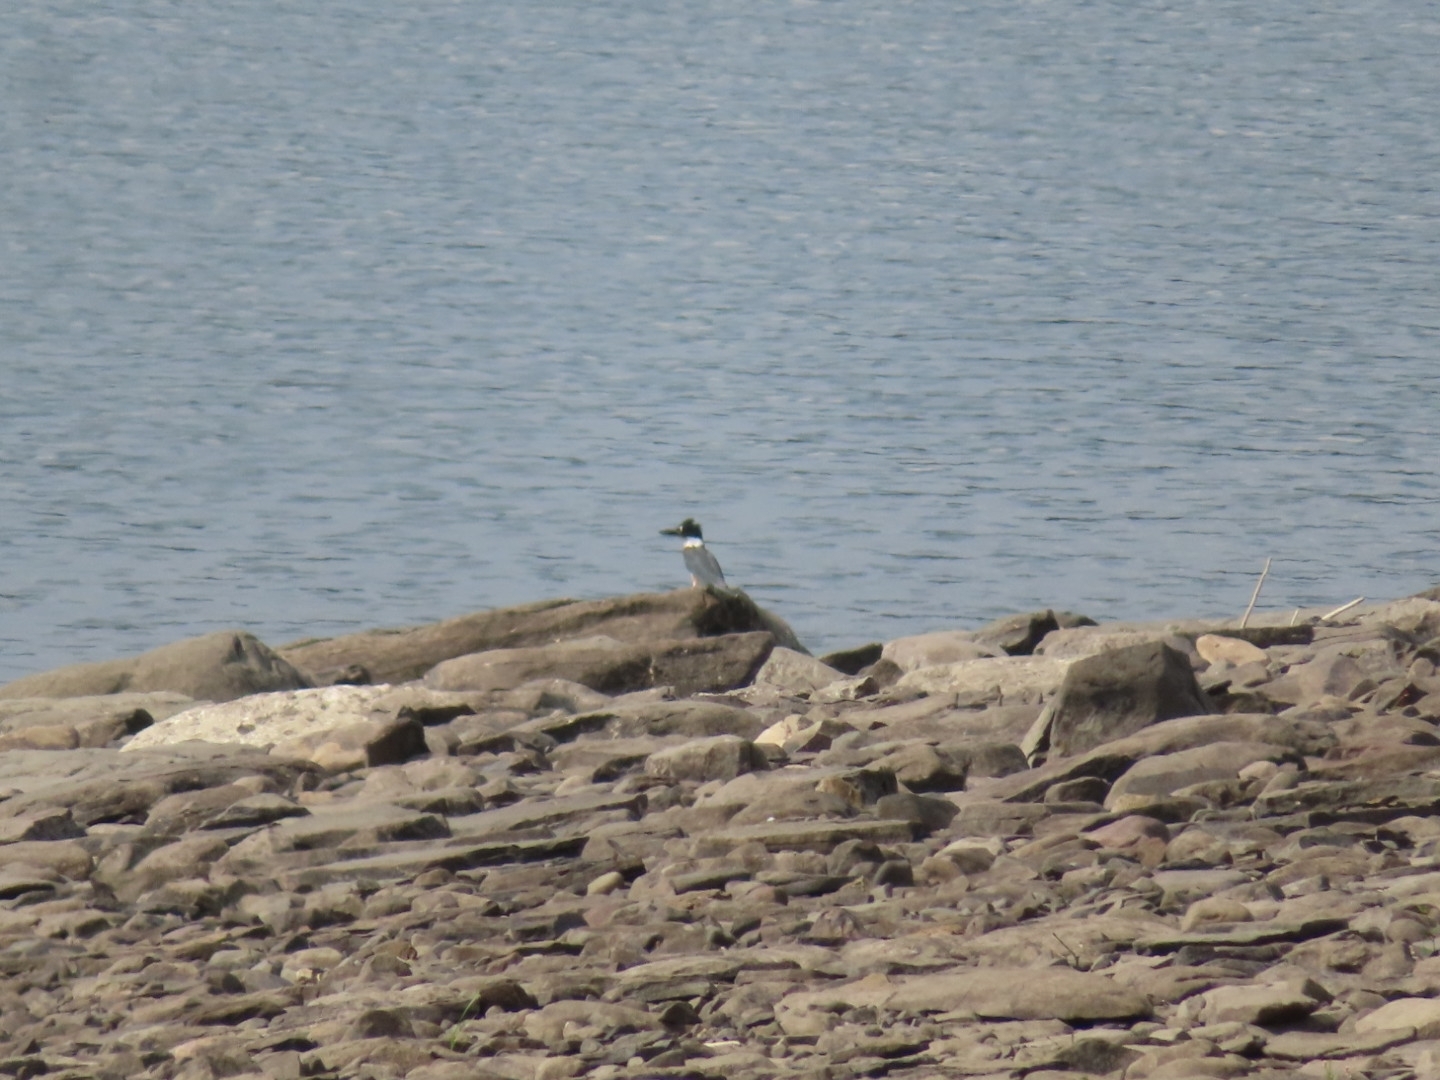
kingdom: Animalia
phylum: Chordata
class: Aves
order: Coraciiformes
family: Alcedinidae
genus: Megaceryle
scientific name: Megaceryle alcyon
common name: Belted kingfisher
